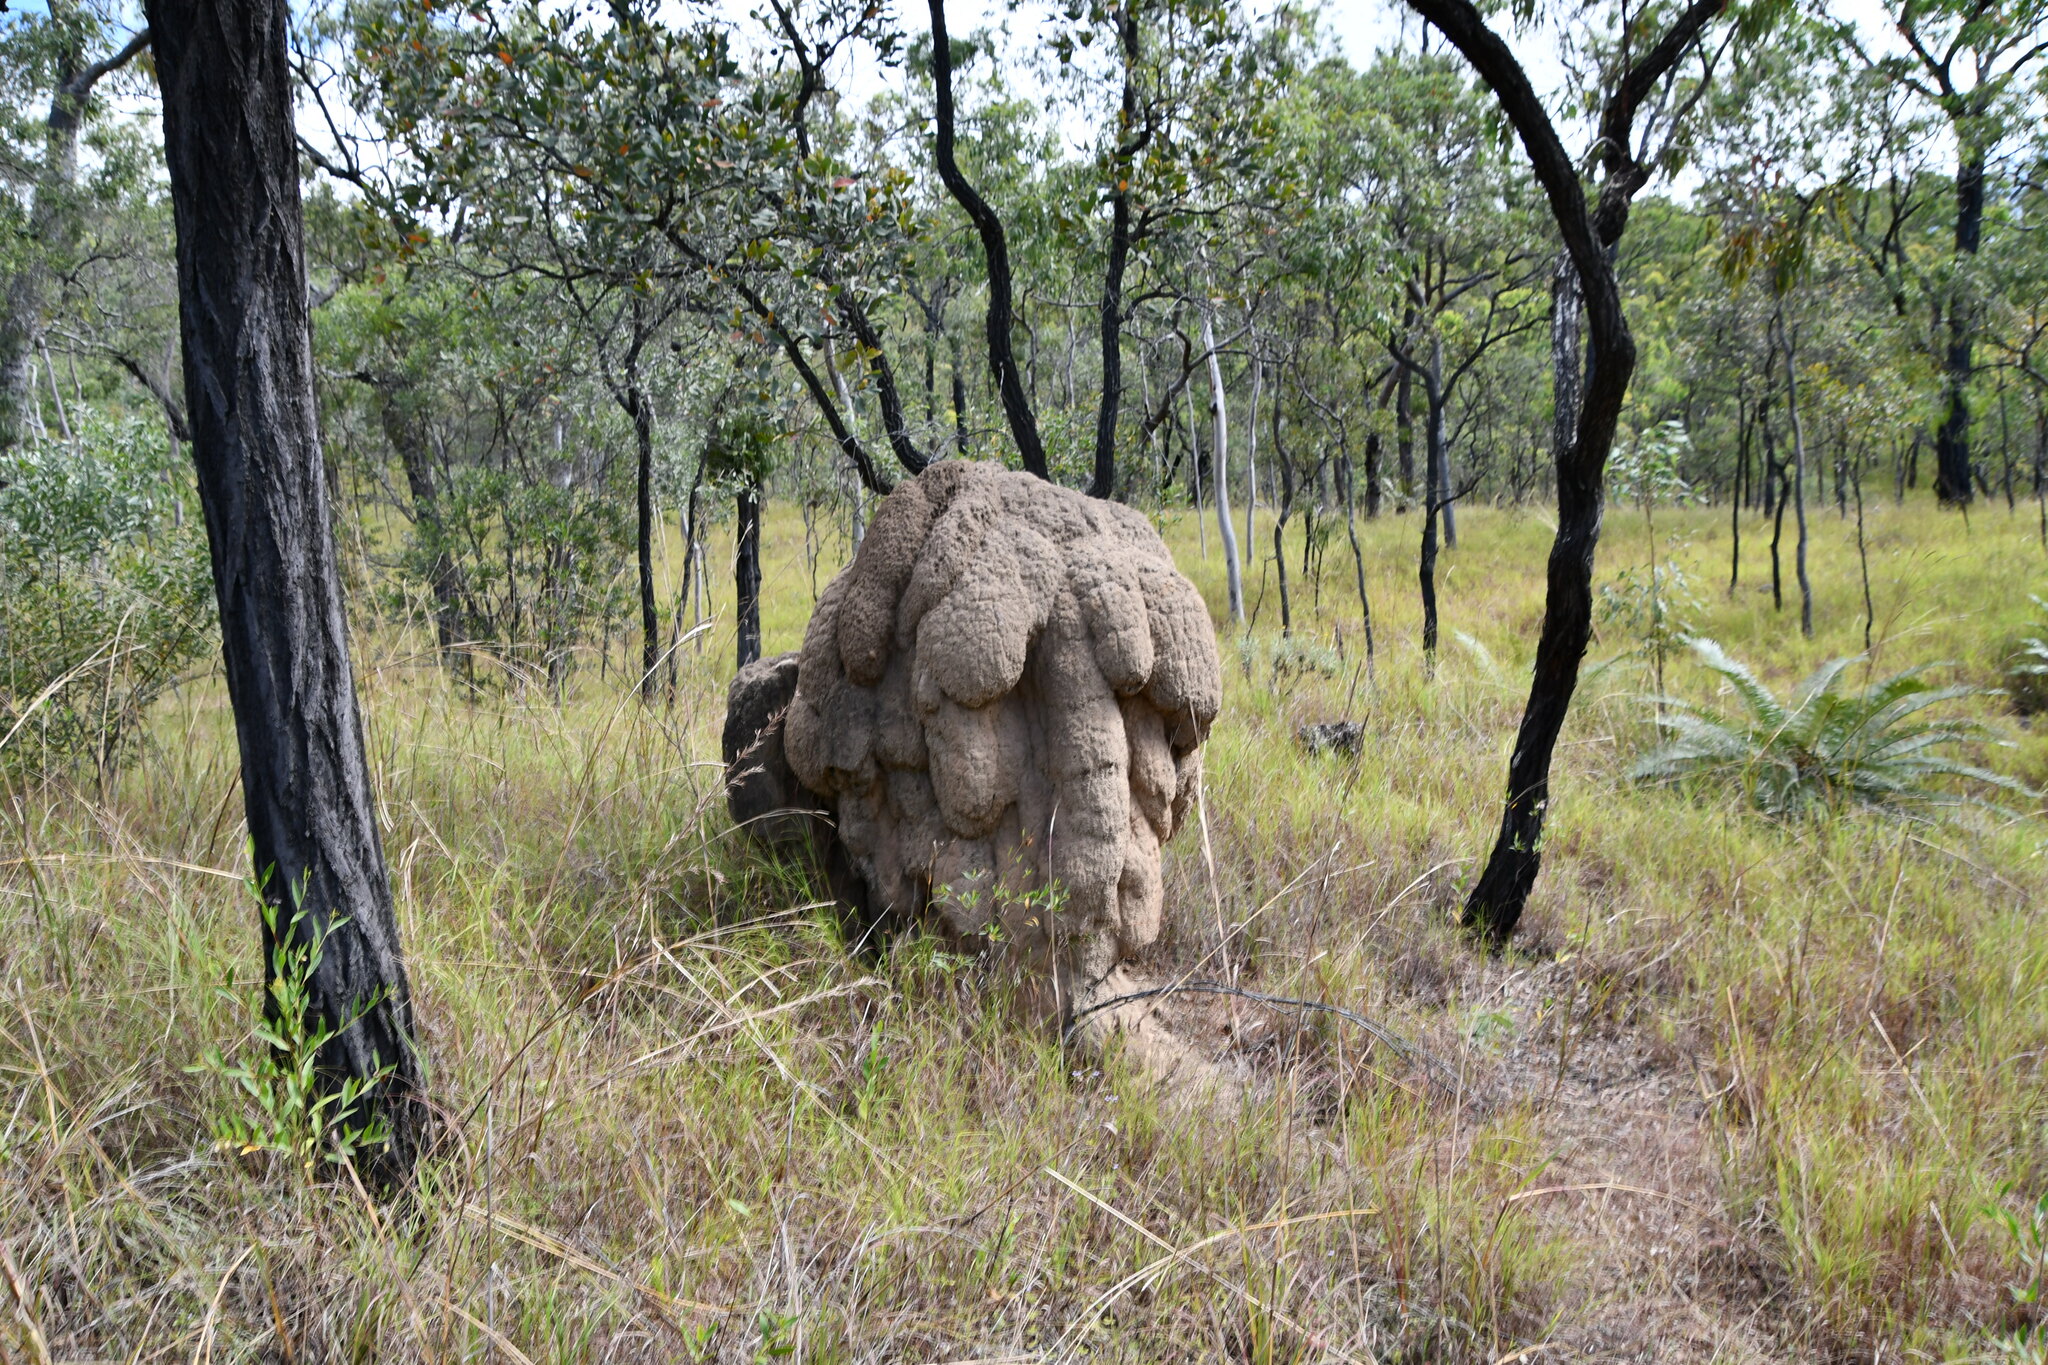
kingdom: Animalia
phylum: Arthropoda
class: Insecta
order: Blattodea
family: Termitidae
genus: Nasutitermes
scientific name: Nasutitermes triodiae
